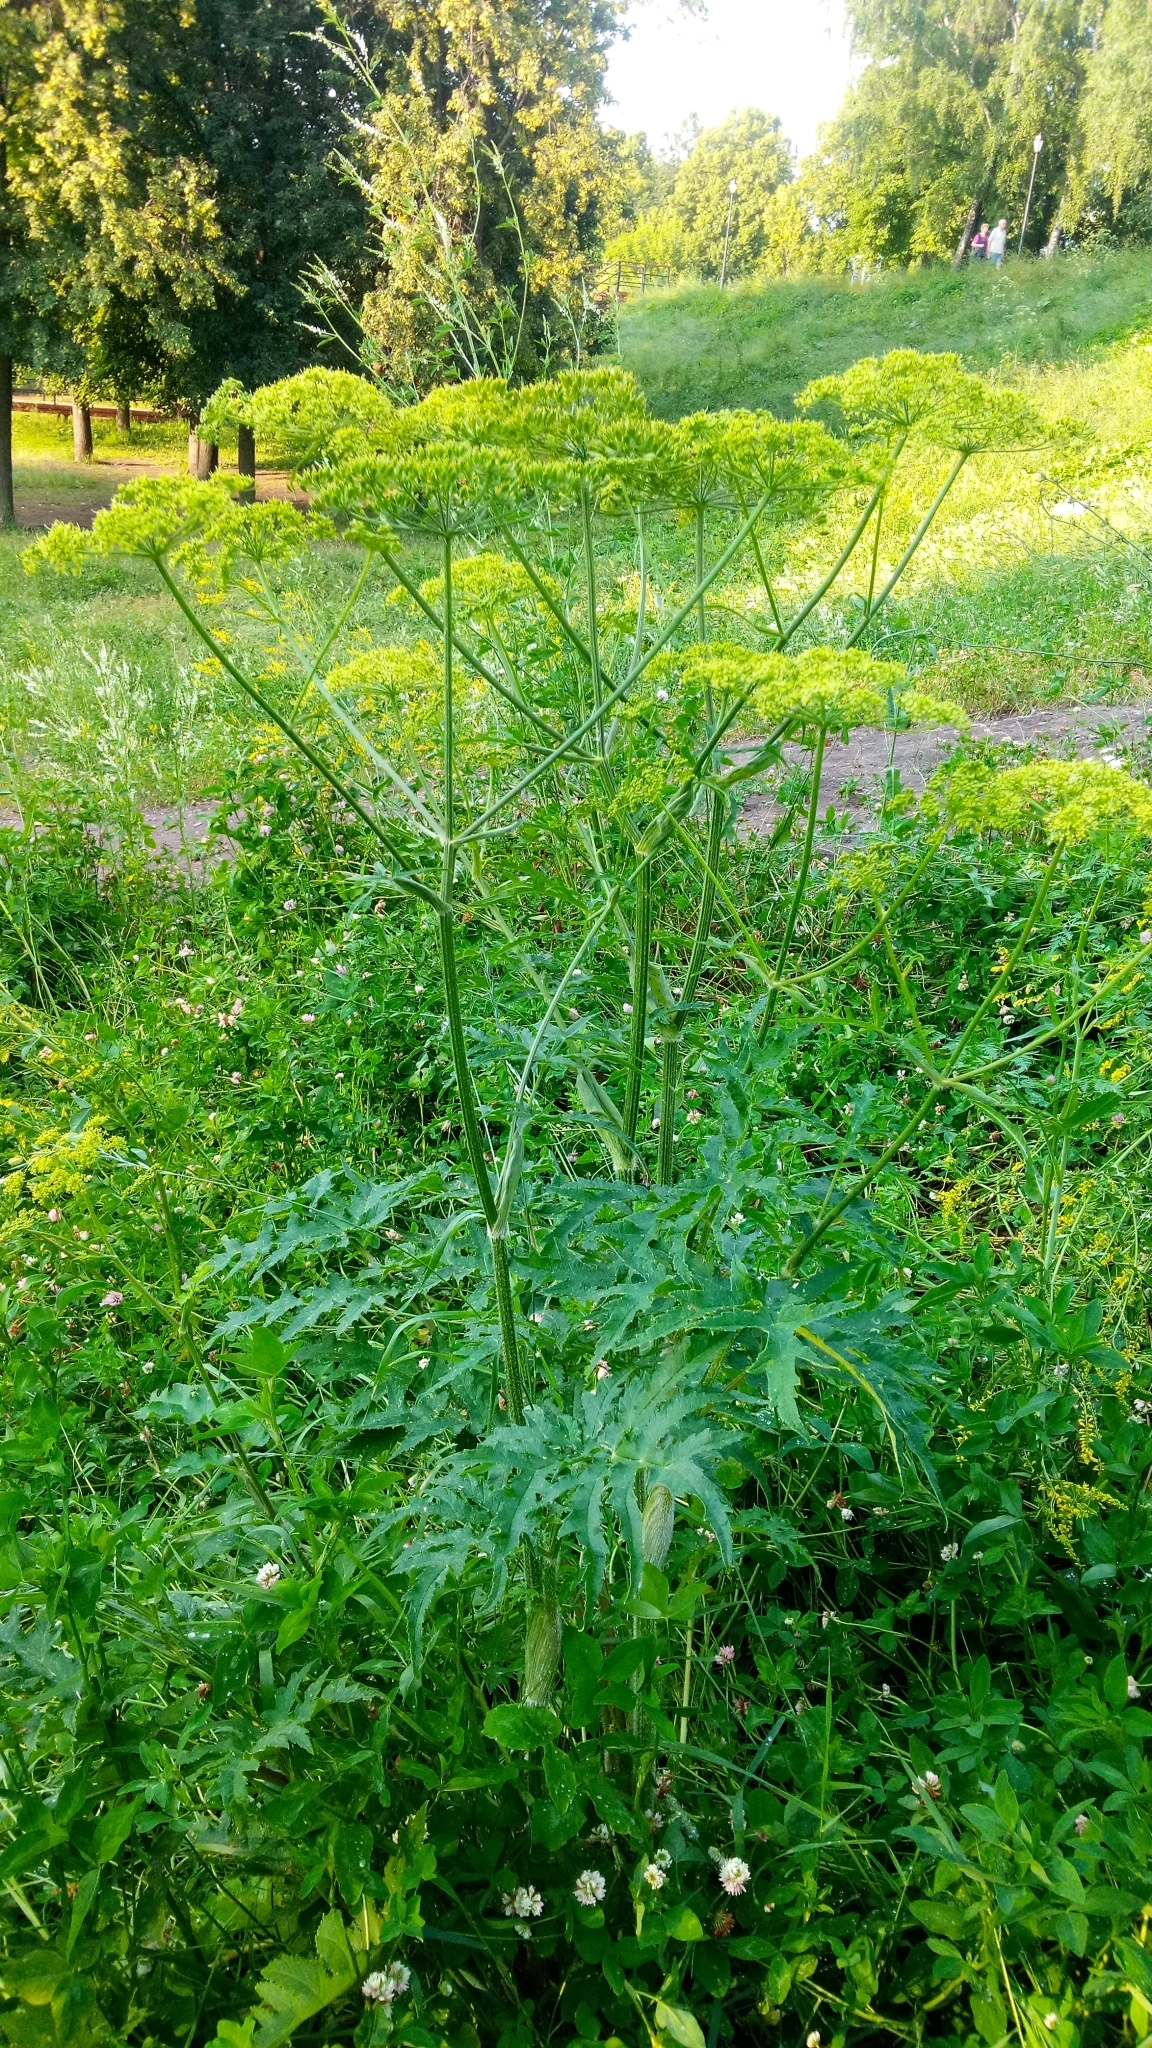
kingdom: Plantae
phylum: Tracheophyta
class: Magnoliopsida
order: Apiales
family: Apiaceae
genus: Heracleum
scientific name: Heracleum sphondylium
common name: Hogweed
